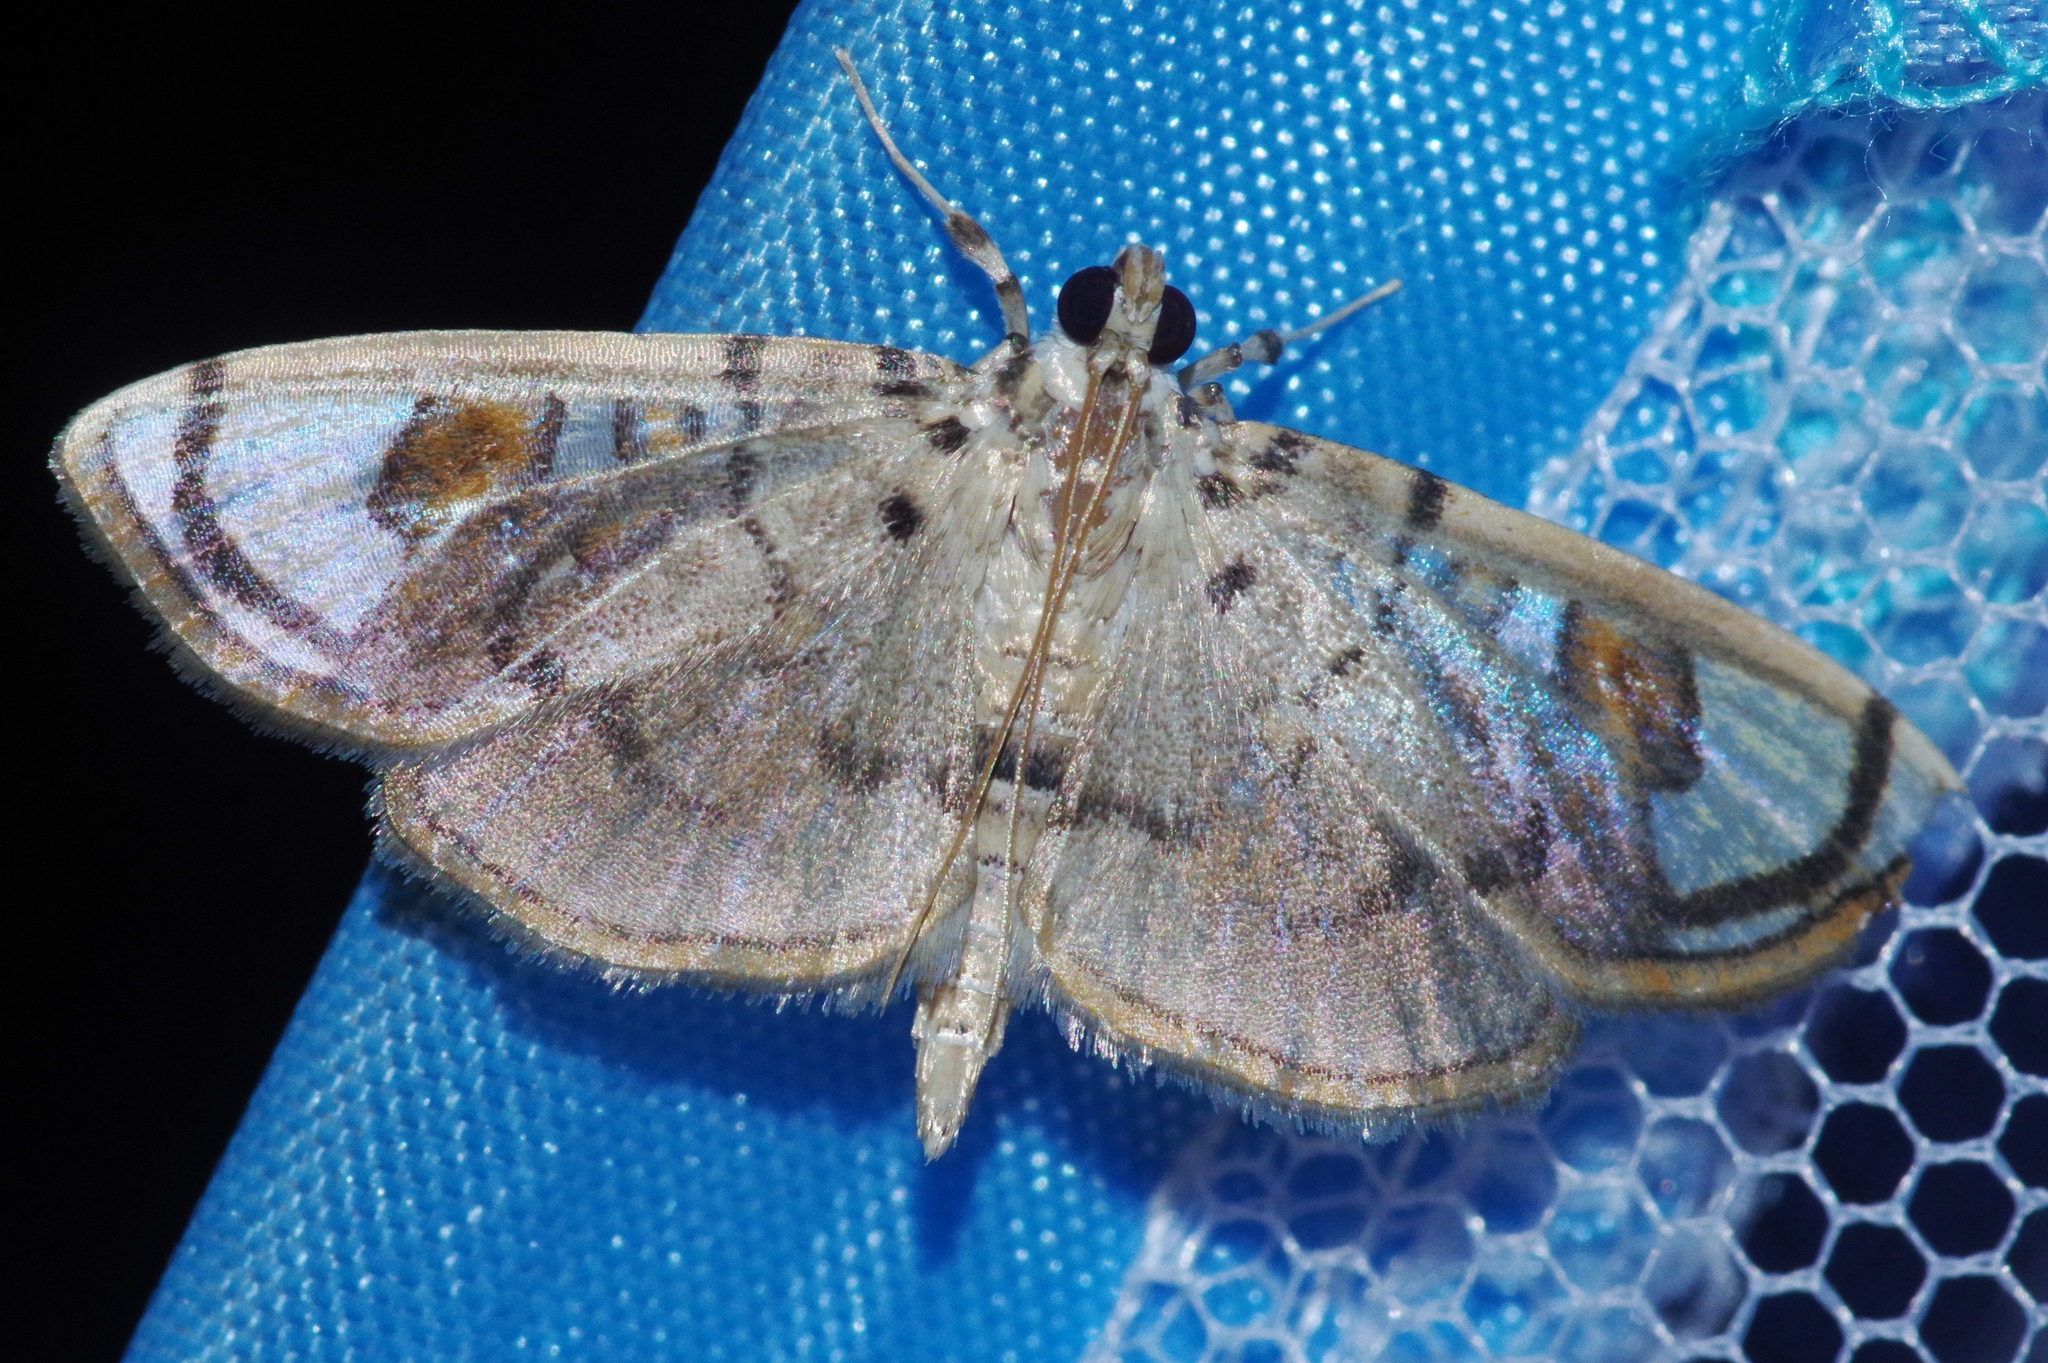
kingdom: Animalia
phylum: Arthropoda
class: Insecta
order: Lepidoptera
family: Crambidae
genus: Pycnarmon
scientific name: Pycnarmon pantherata
